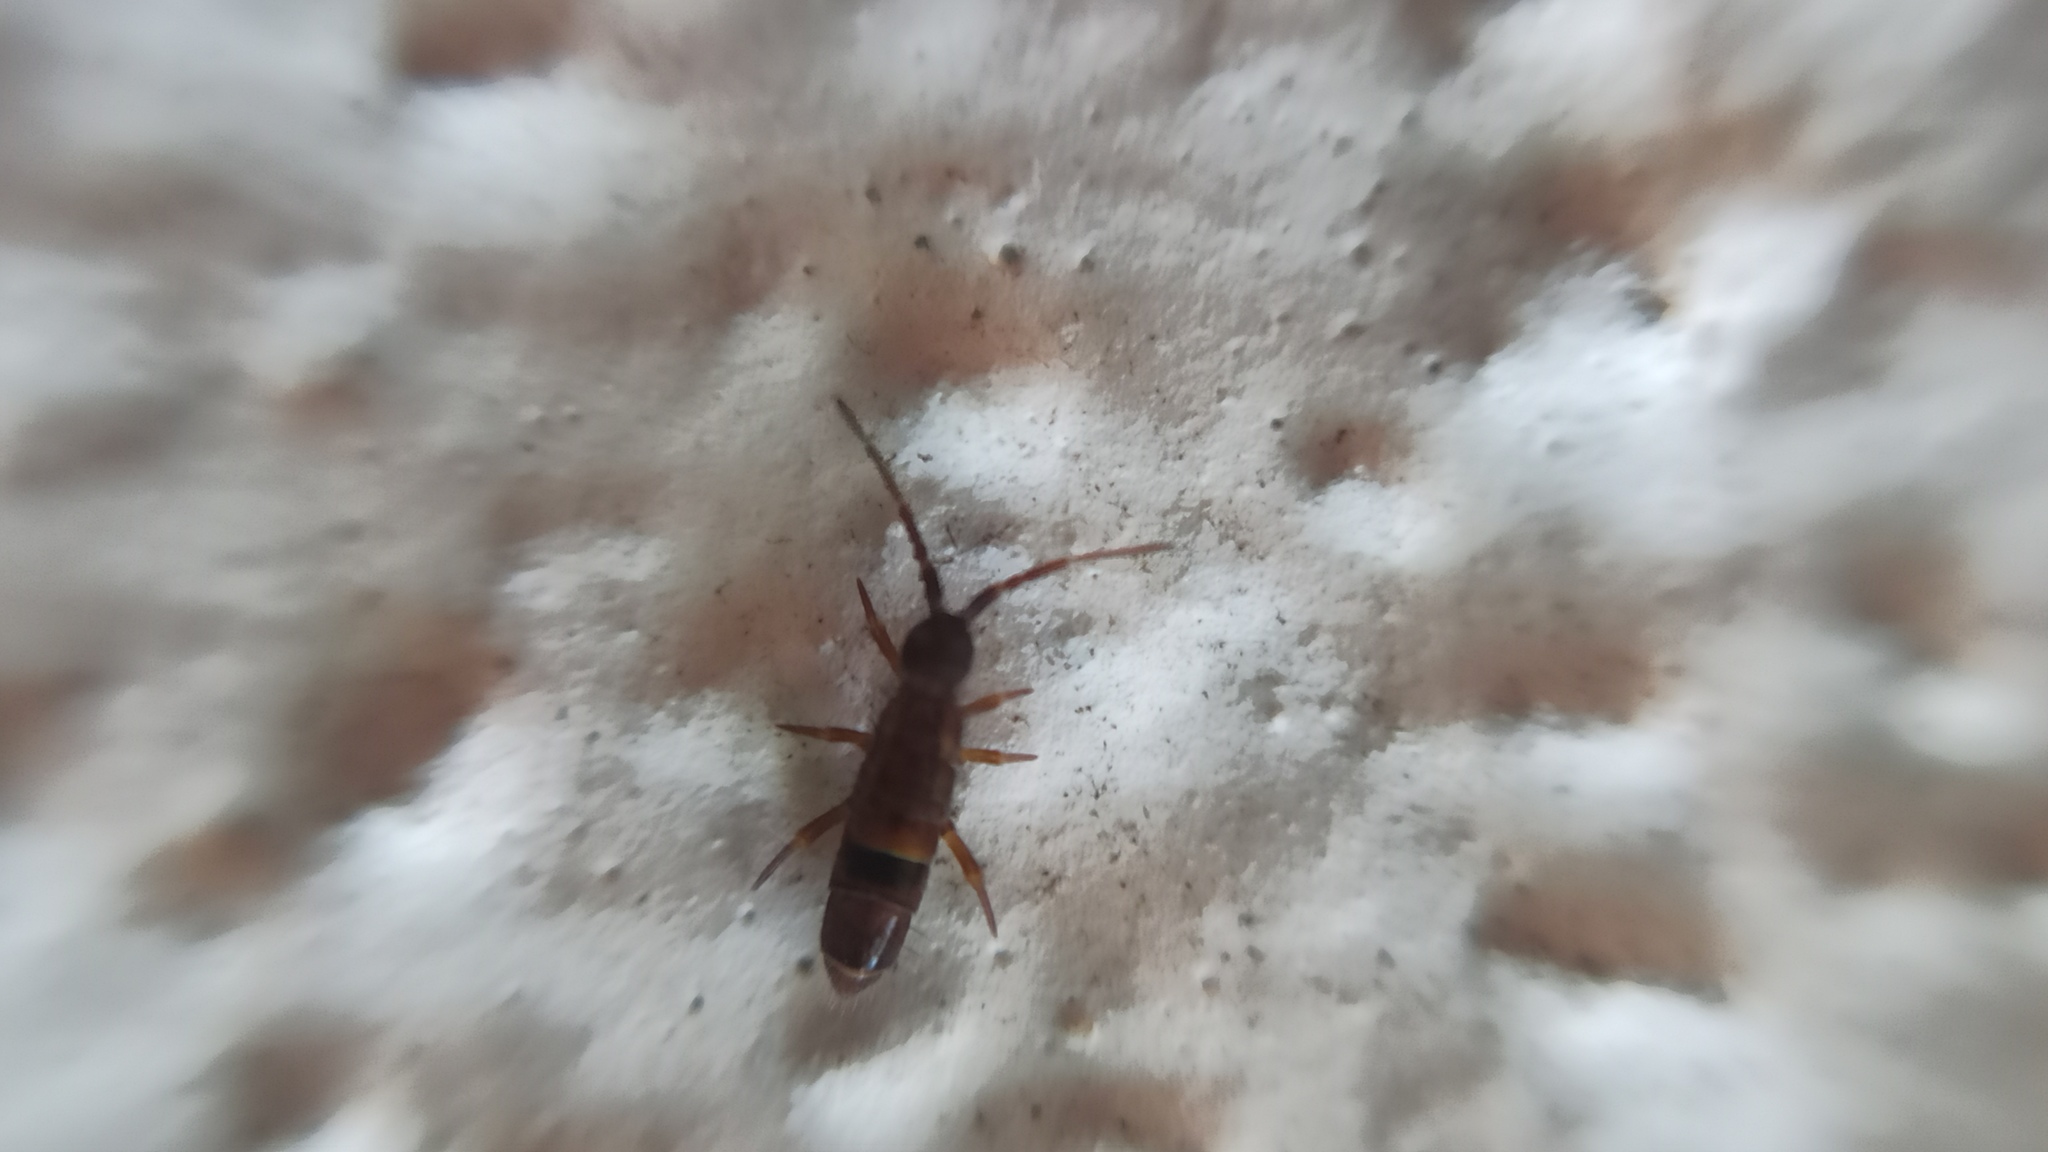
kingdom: Animalia
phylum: Arthropoda
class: Collembola
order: Entomobryomorpha
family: Orchesellidae
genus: Orchesella
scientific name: Orchesella cincta
